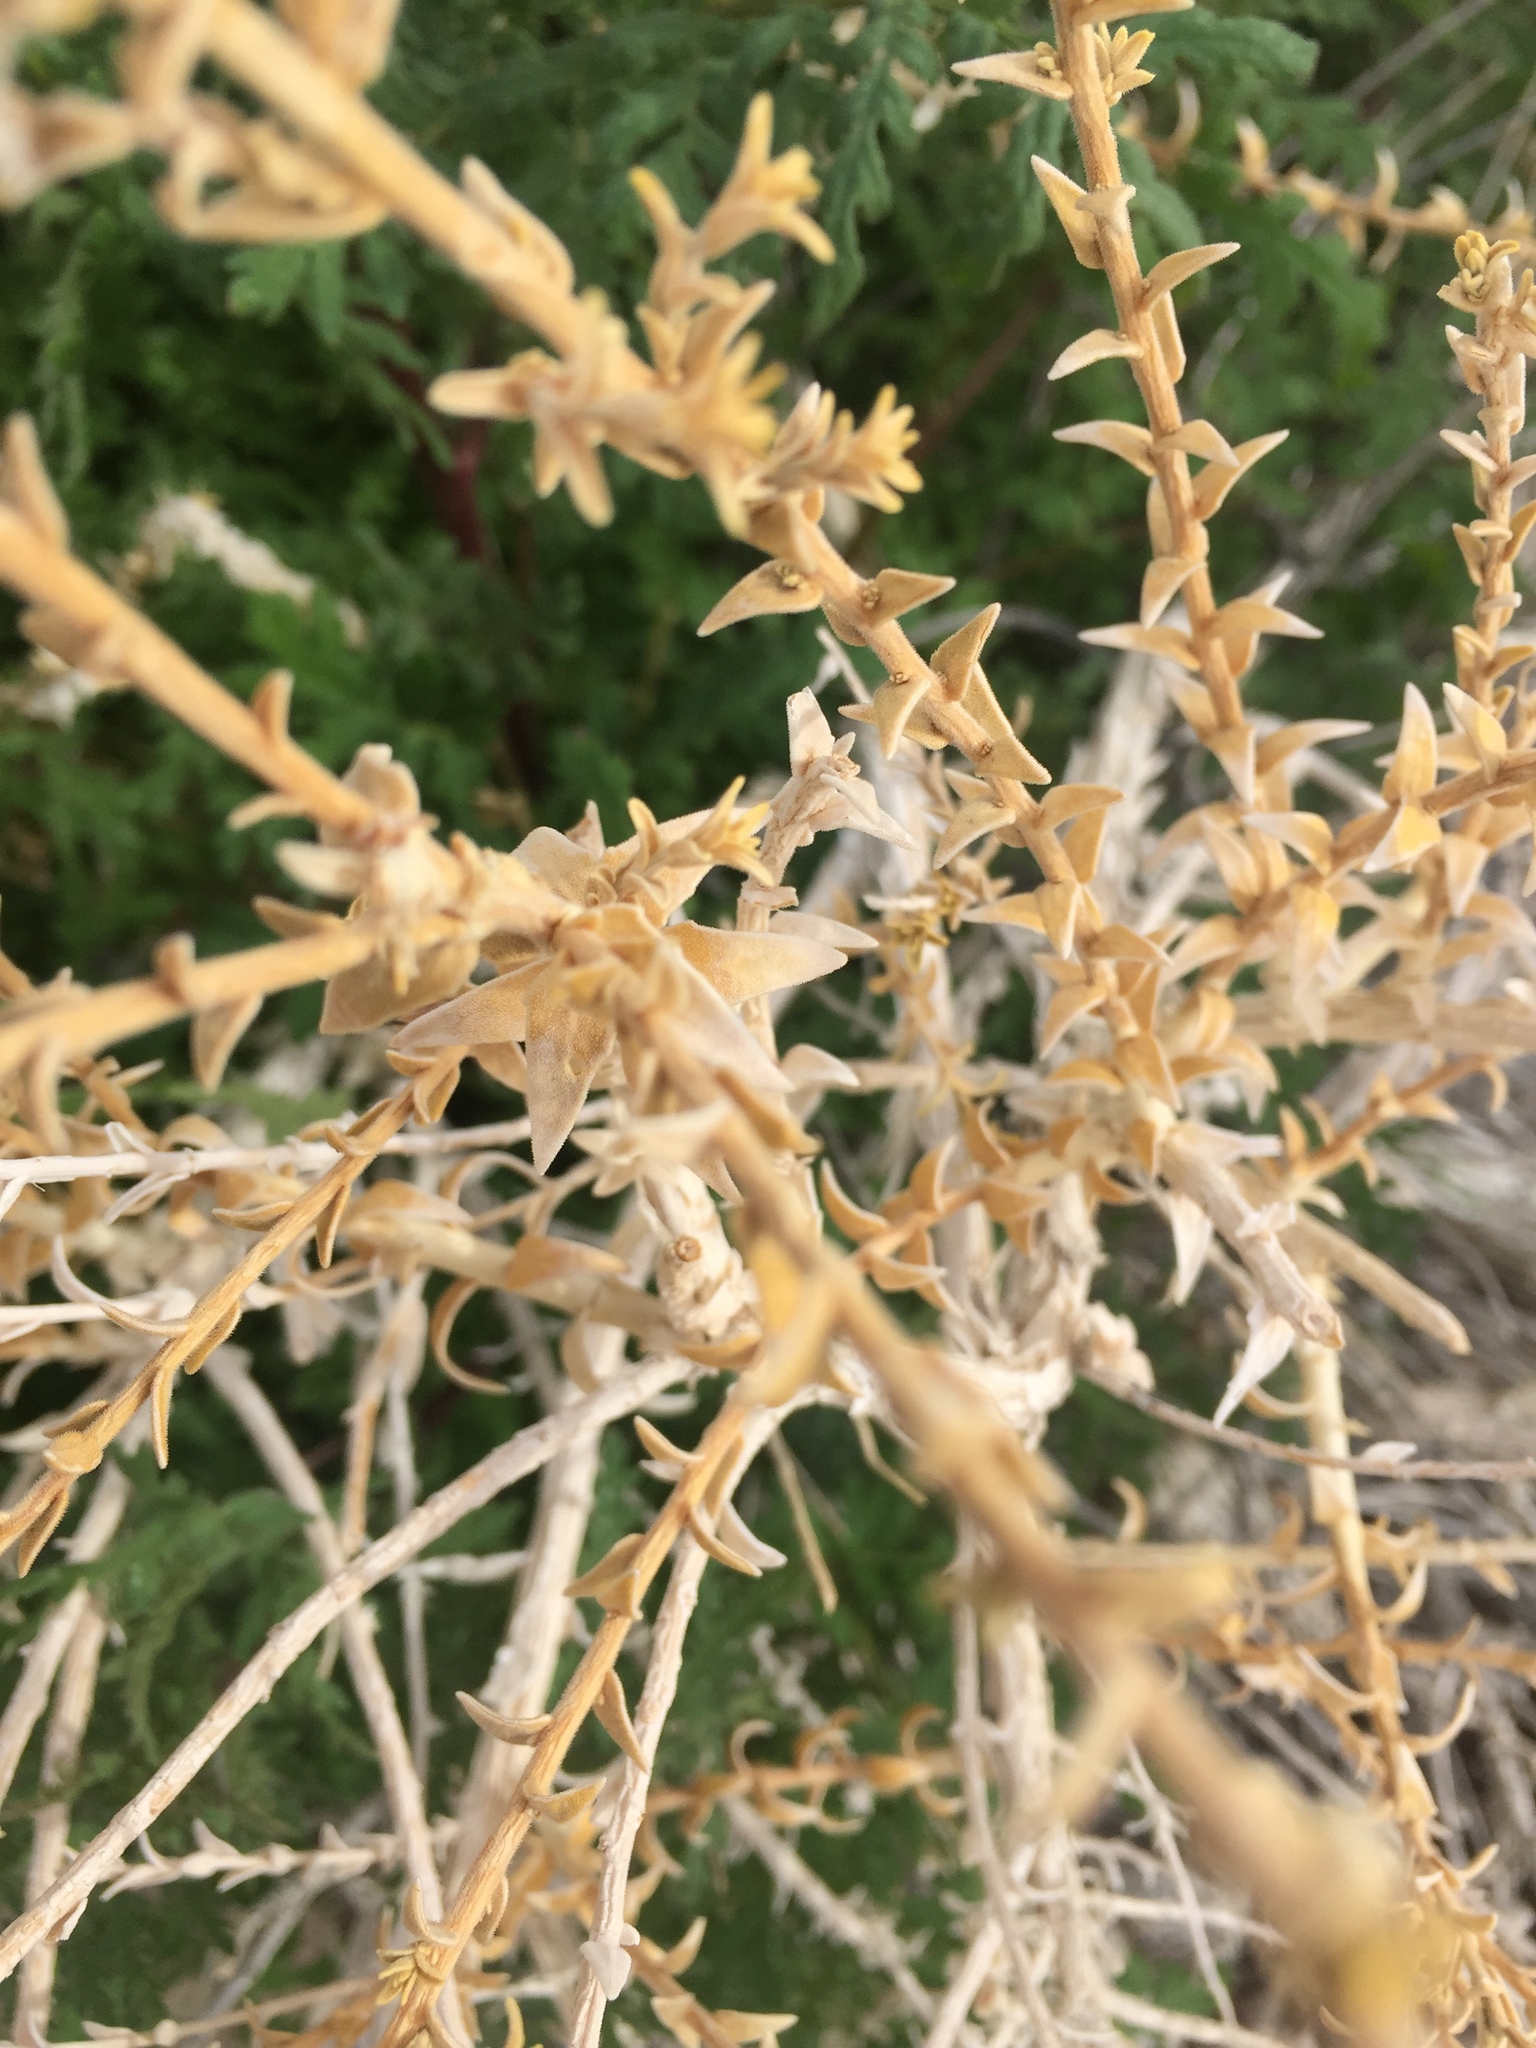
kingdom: Plantae
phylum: Tracheophyta
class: Magnoliopsida
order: Cornales
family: Loasaceae
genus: Petalonyx
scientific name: Petalonyx thurberi
